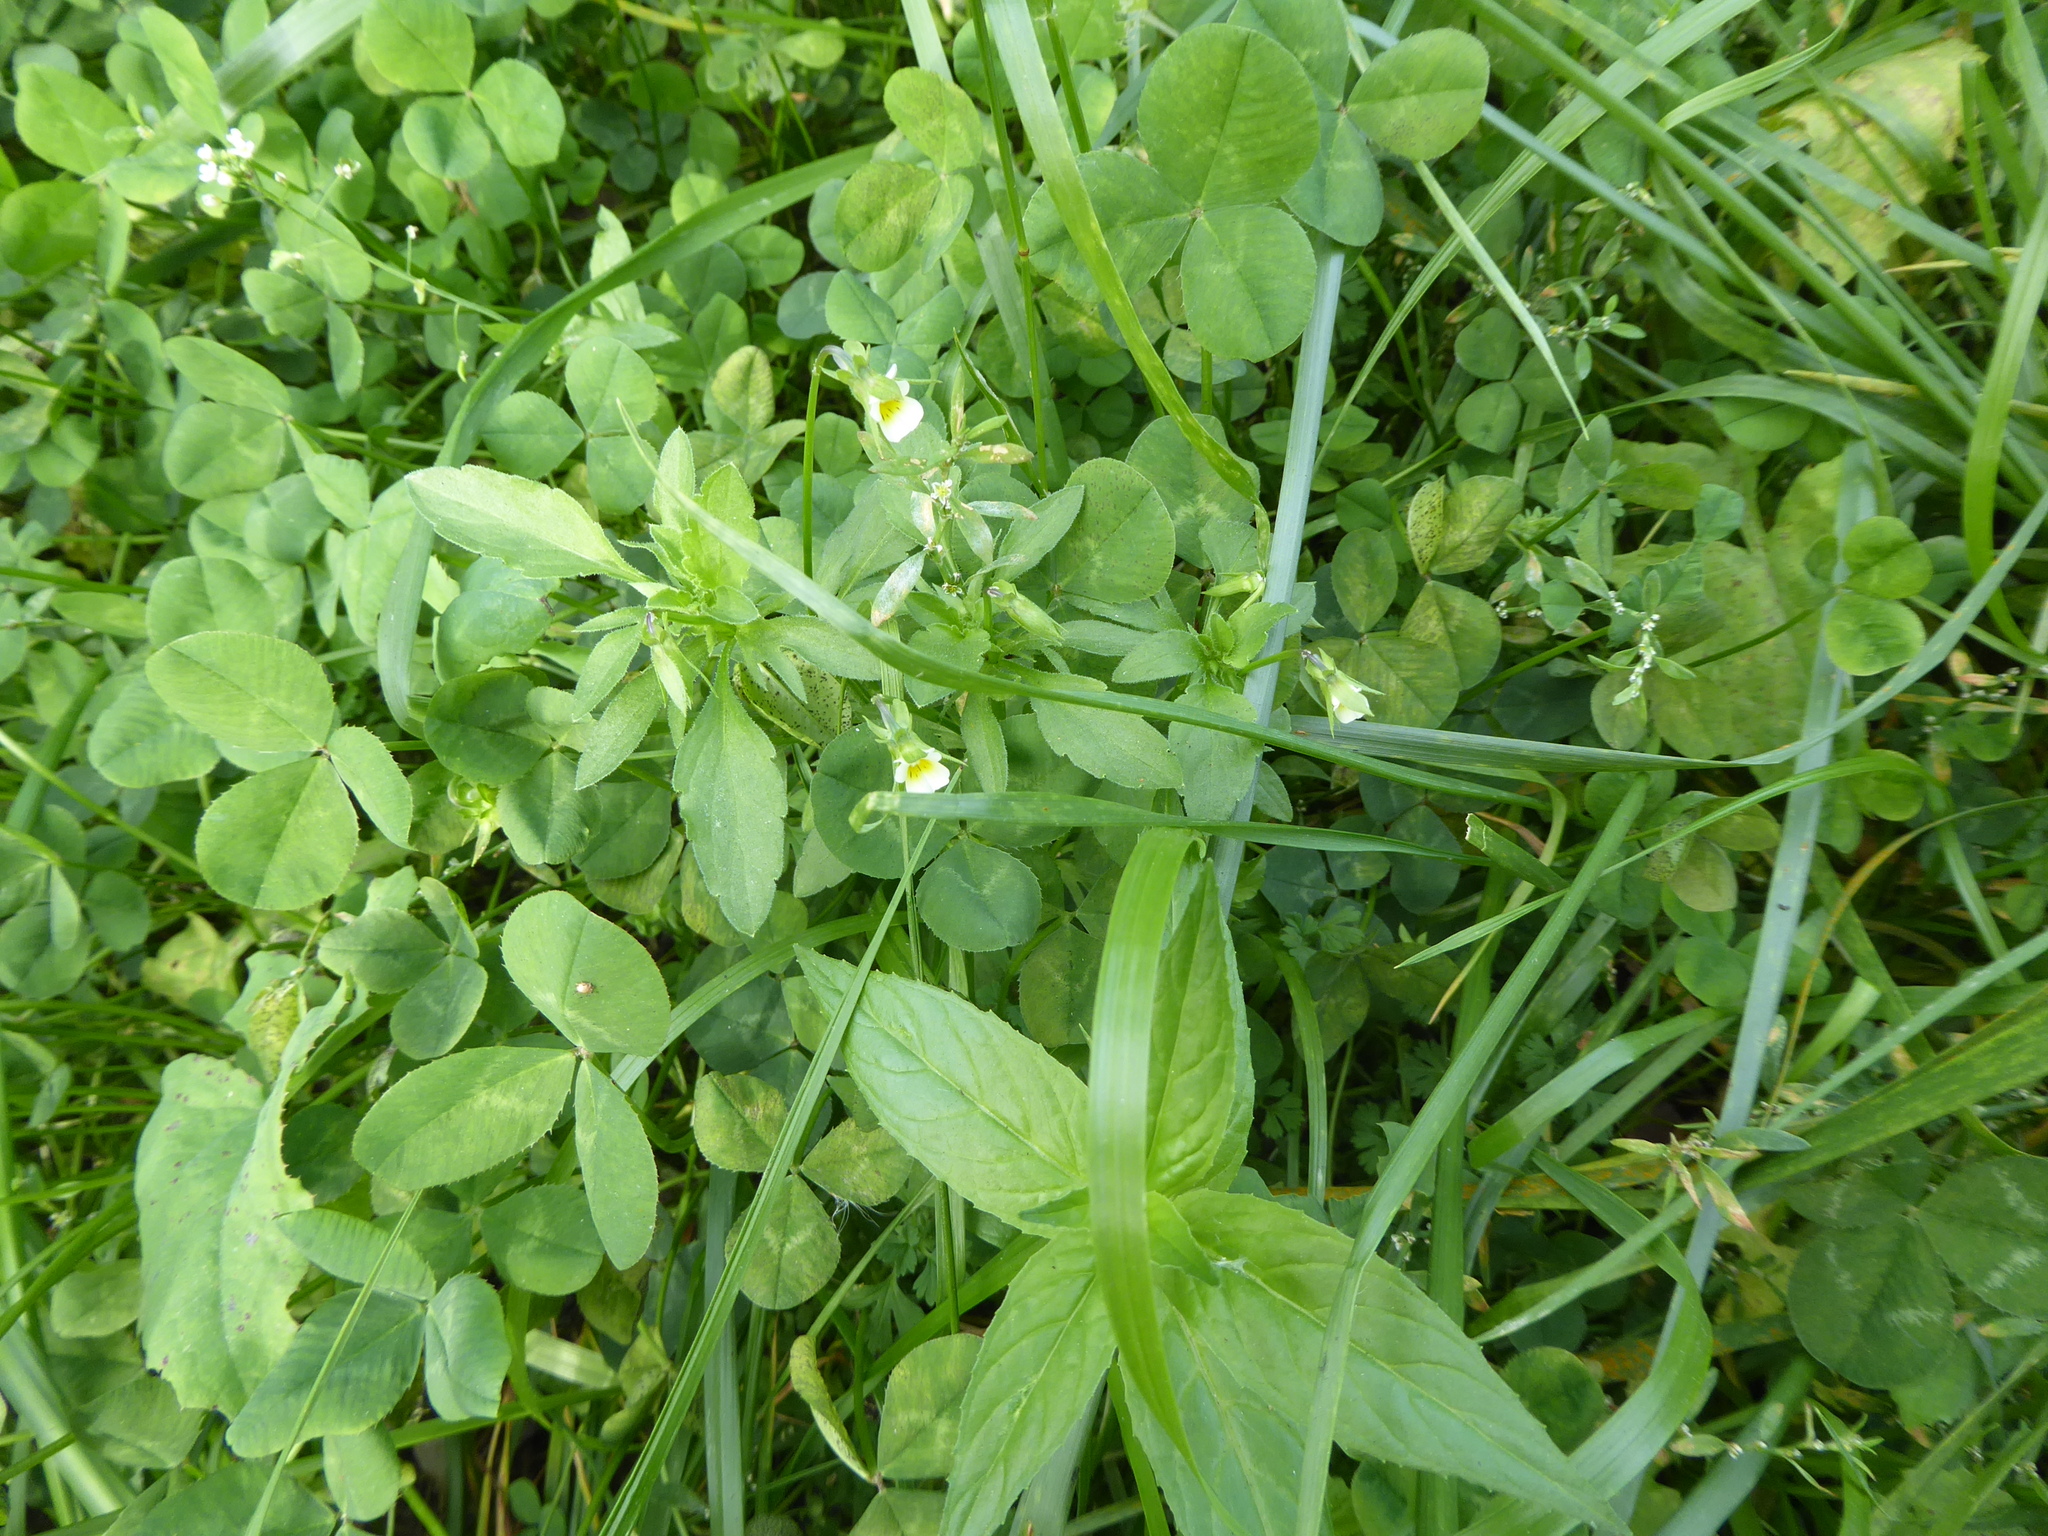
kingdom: Plantae
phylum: Tracheophyta
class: Magnoliopsida
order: Malpighiales
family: Violaceae
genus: Viola
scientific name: Viola arvensis
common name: Field pansy
